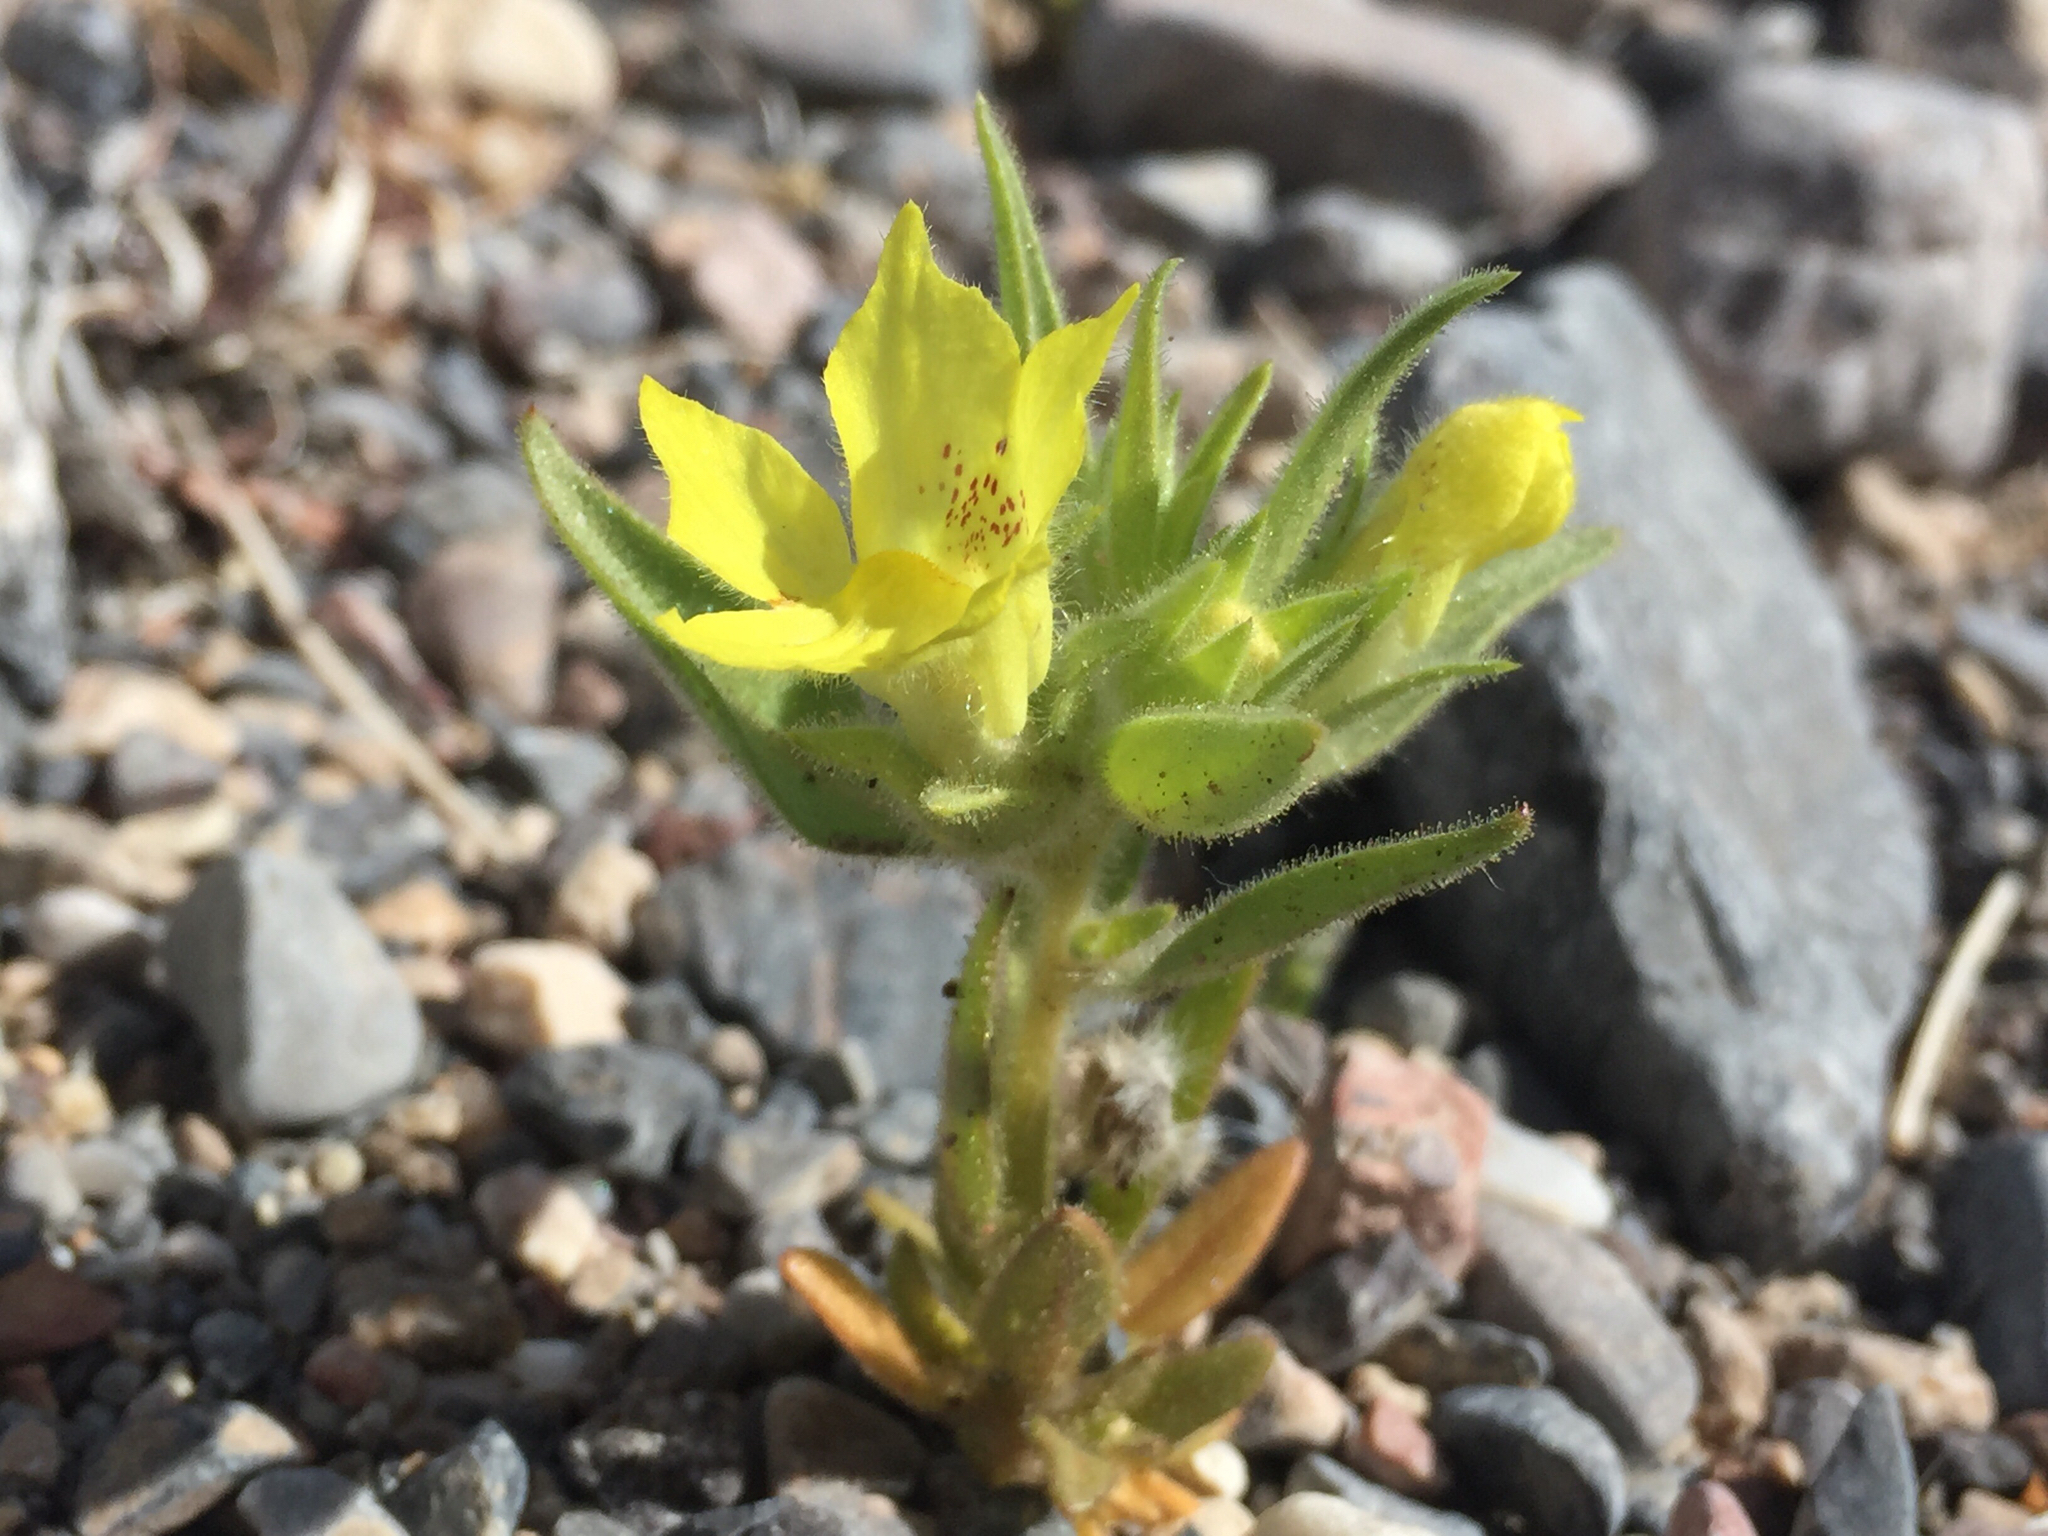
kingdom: Plantae
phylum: Tracheophyta
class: Magnoliopsida
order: Lamiales
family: Plantaginaceae
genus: Mohavea
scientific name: Mohavea breviflora
